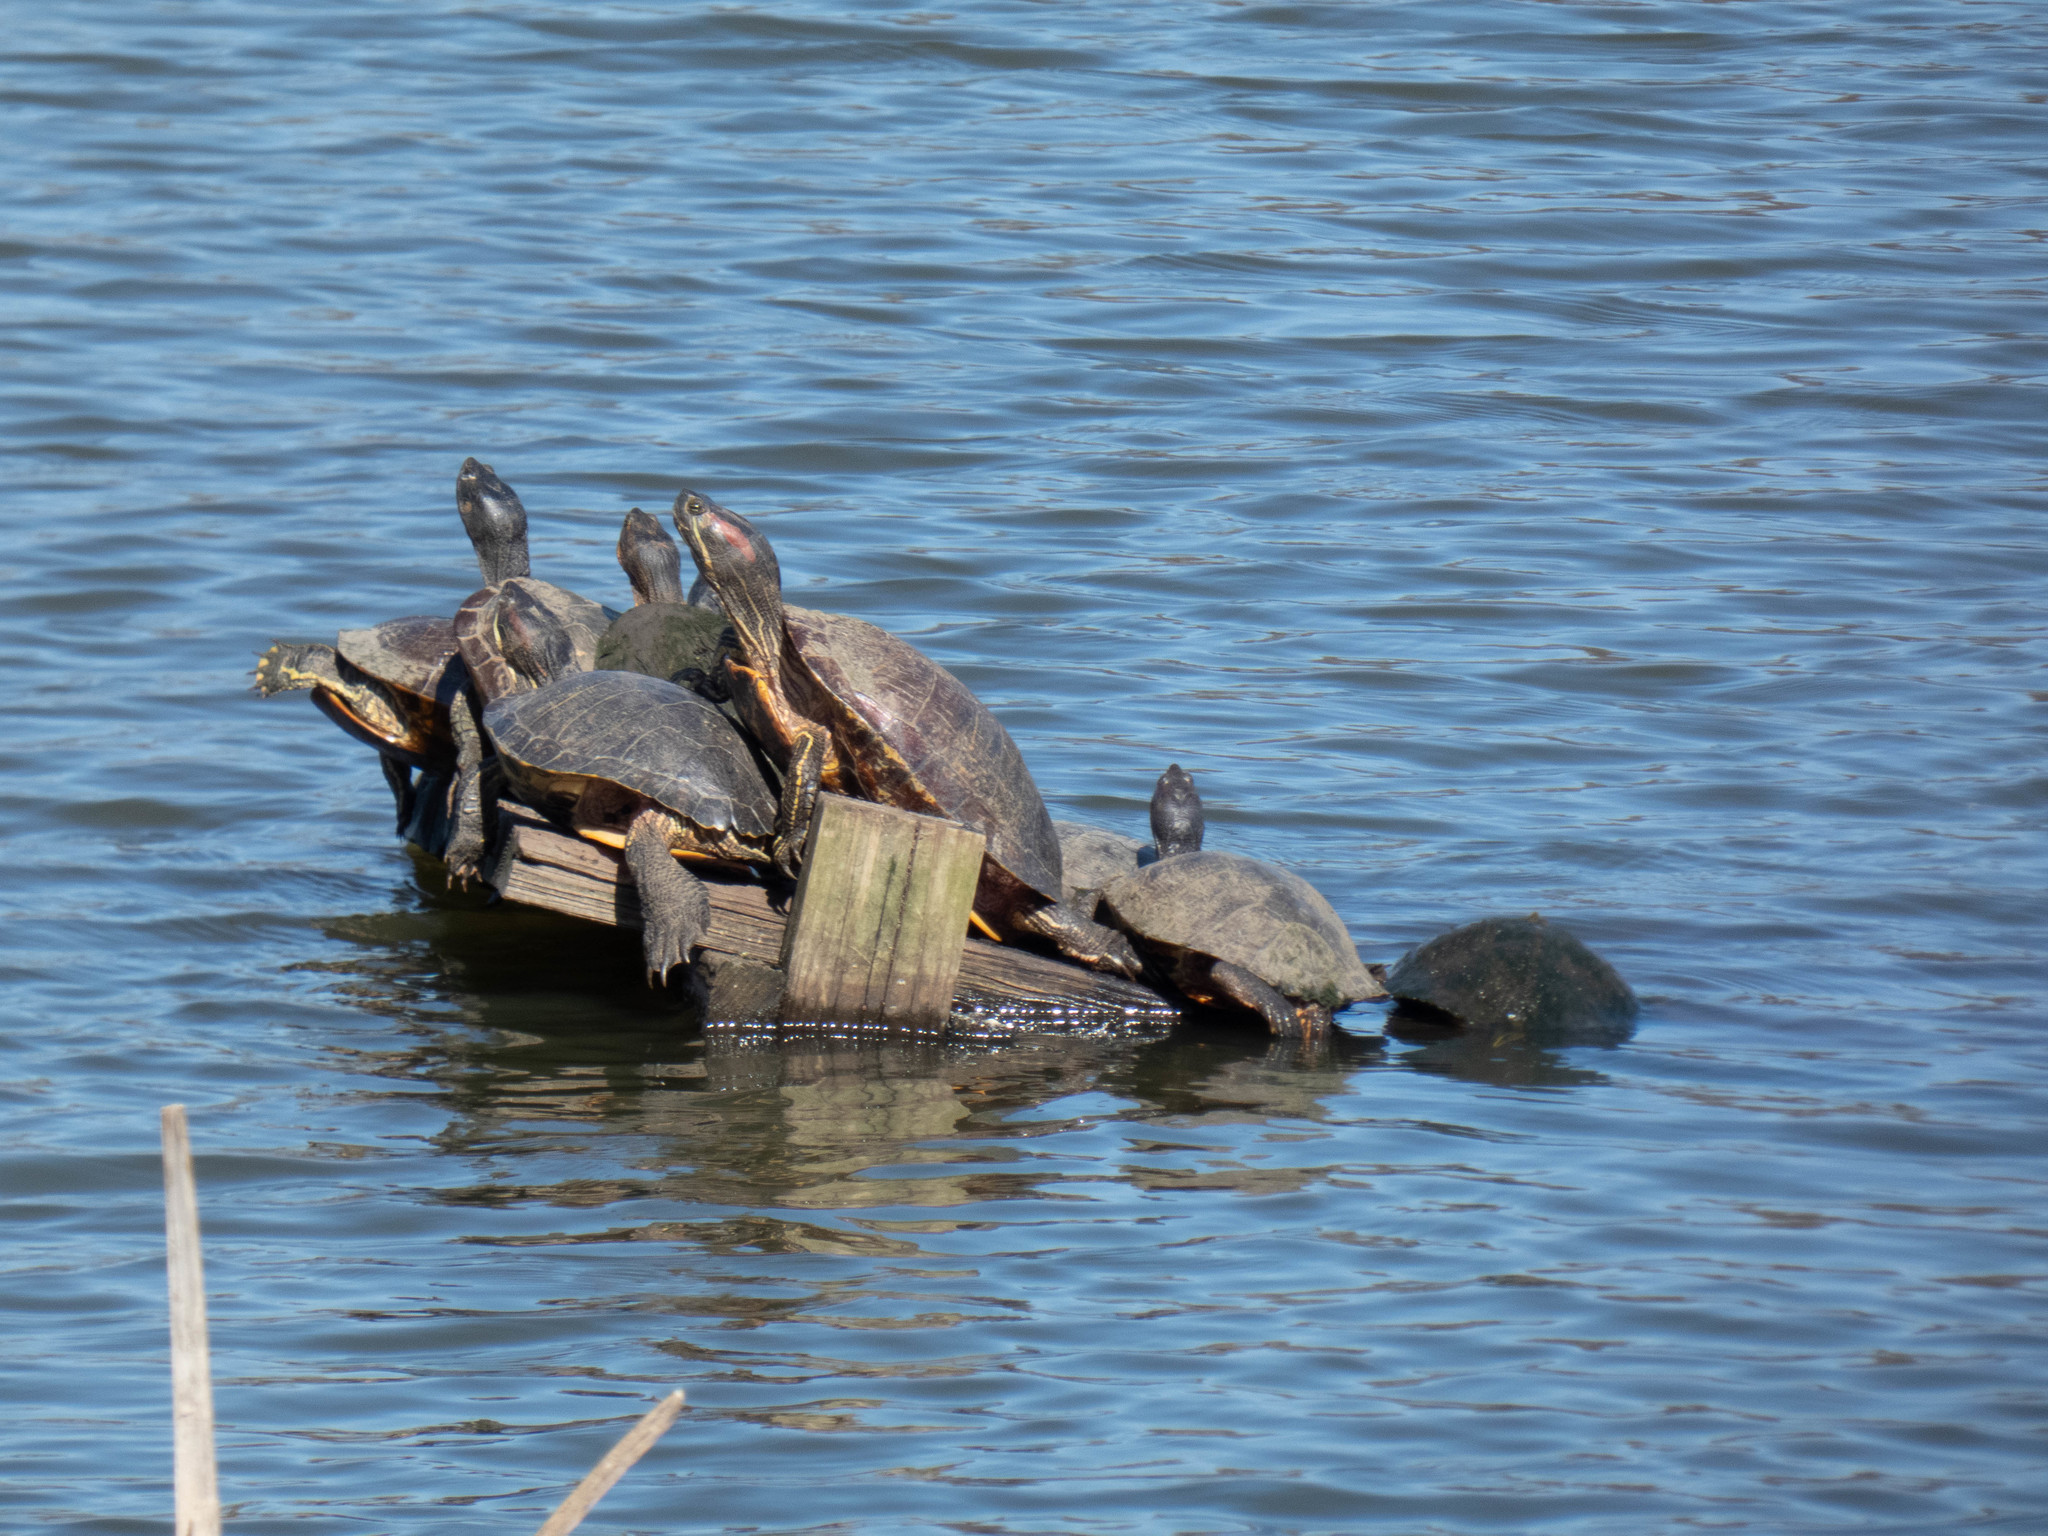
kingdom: Animalia
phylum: Chordata
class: Testudines
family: Emydidae
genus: Trachemys
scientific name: Trachemys scripta
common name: Slider
